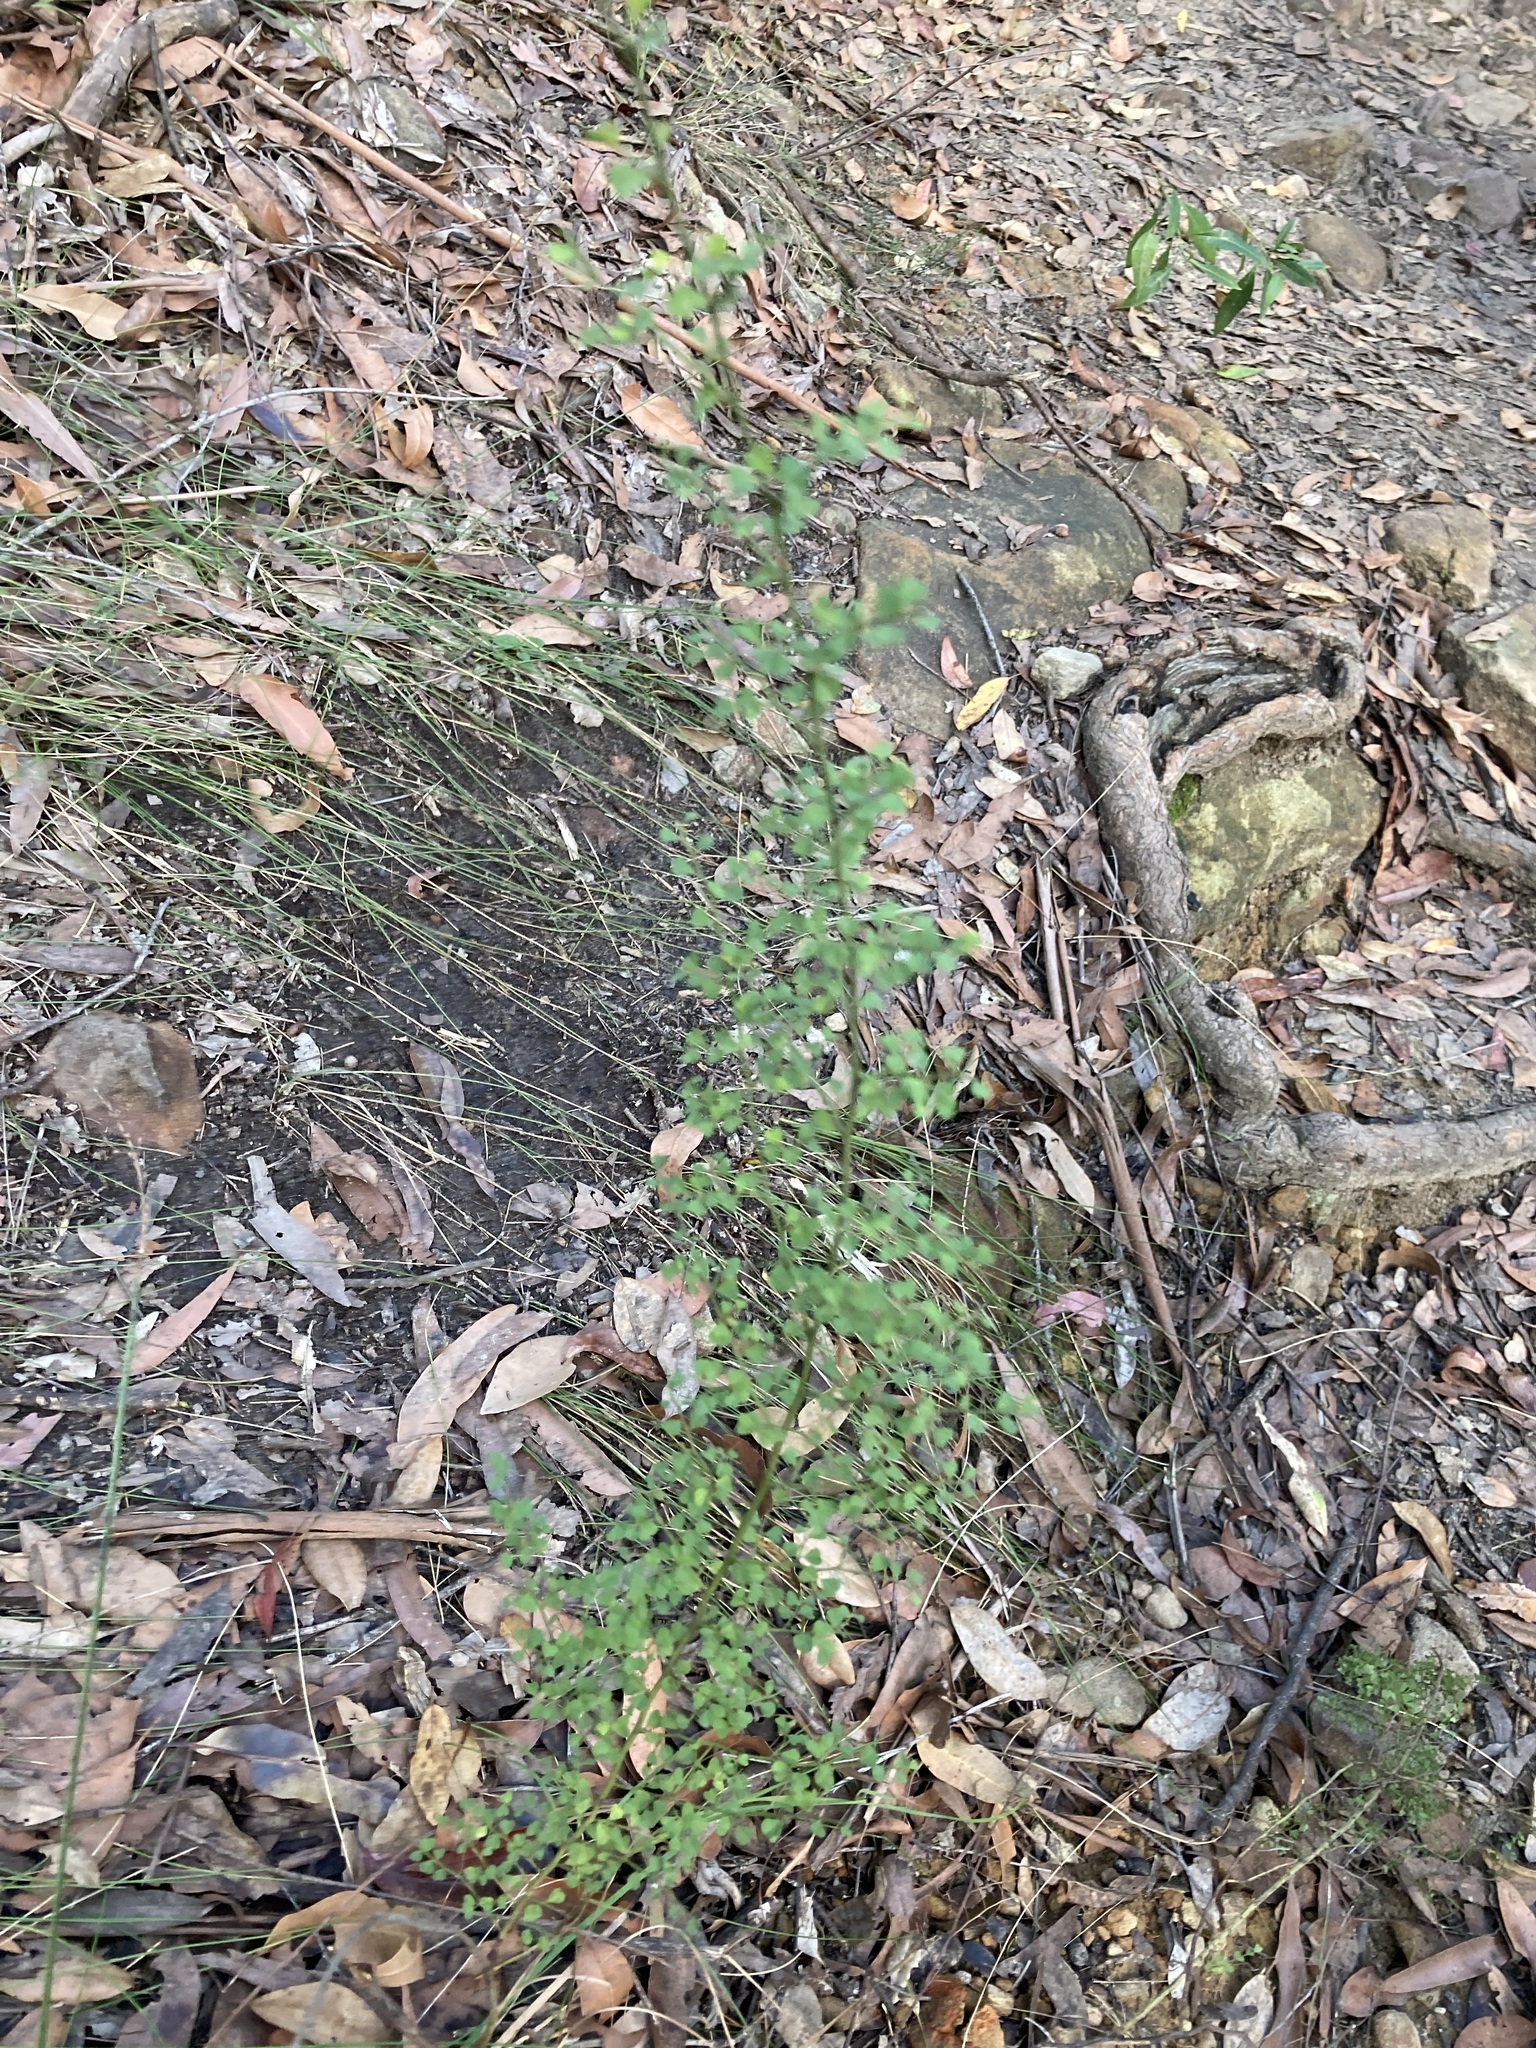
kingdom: Plantae
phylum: Tracheophyta
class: Magnoliopsida
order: Fabales
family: Fabaceae
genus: Bossiaea
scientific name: Bossiaea obcordata
